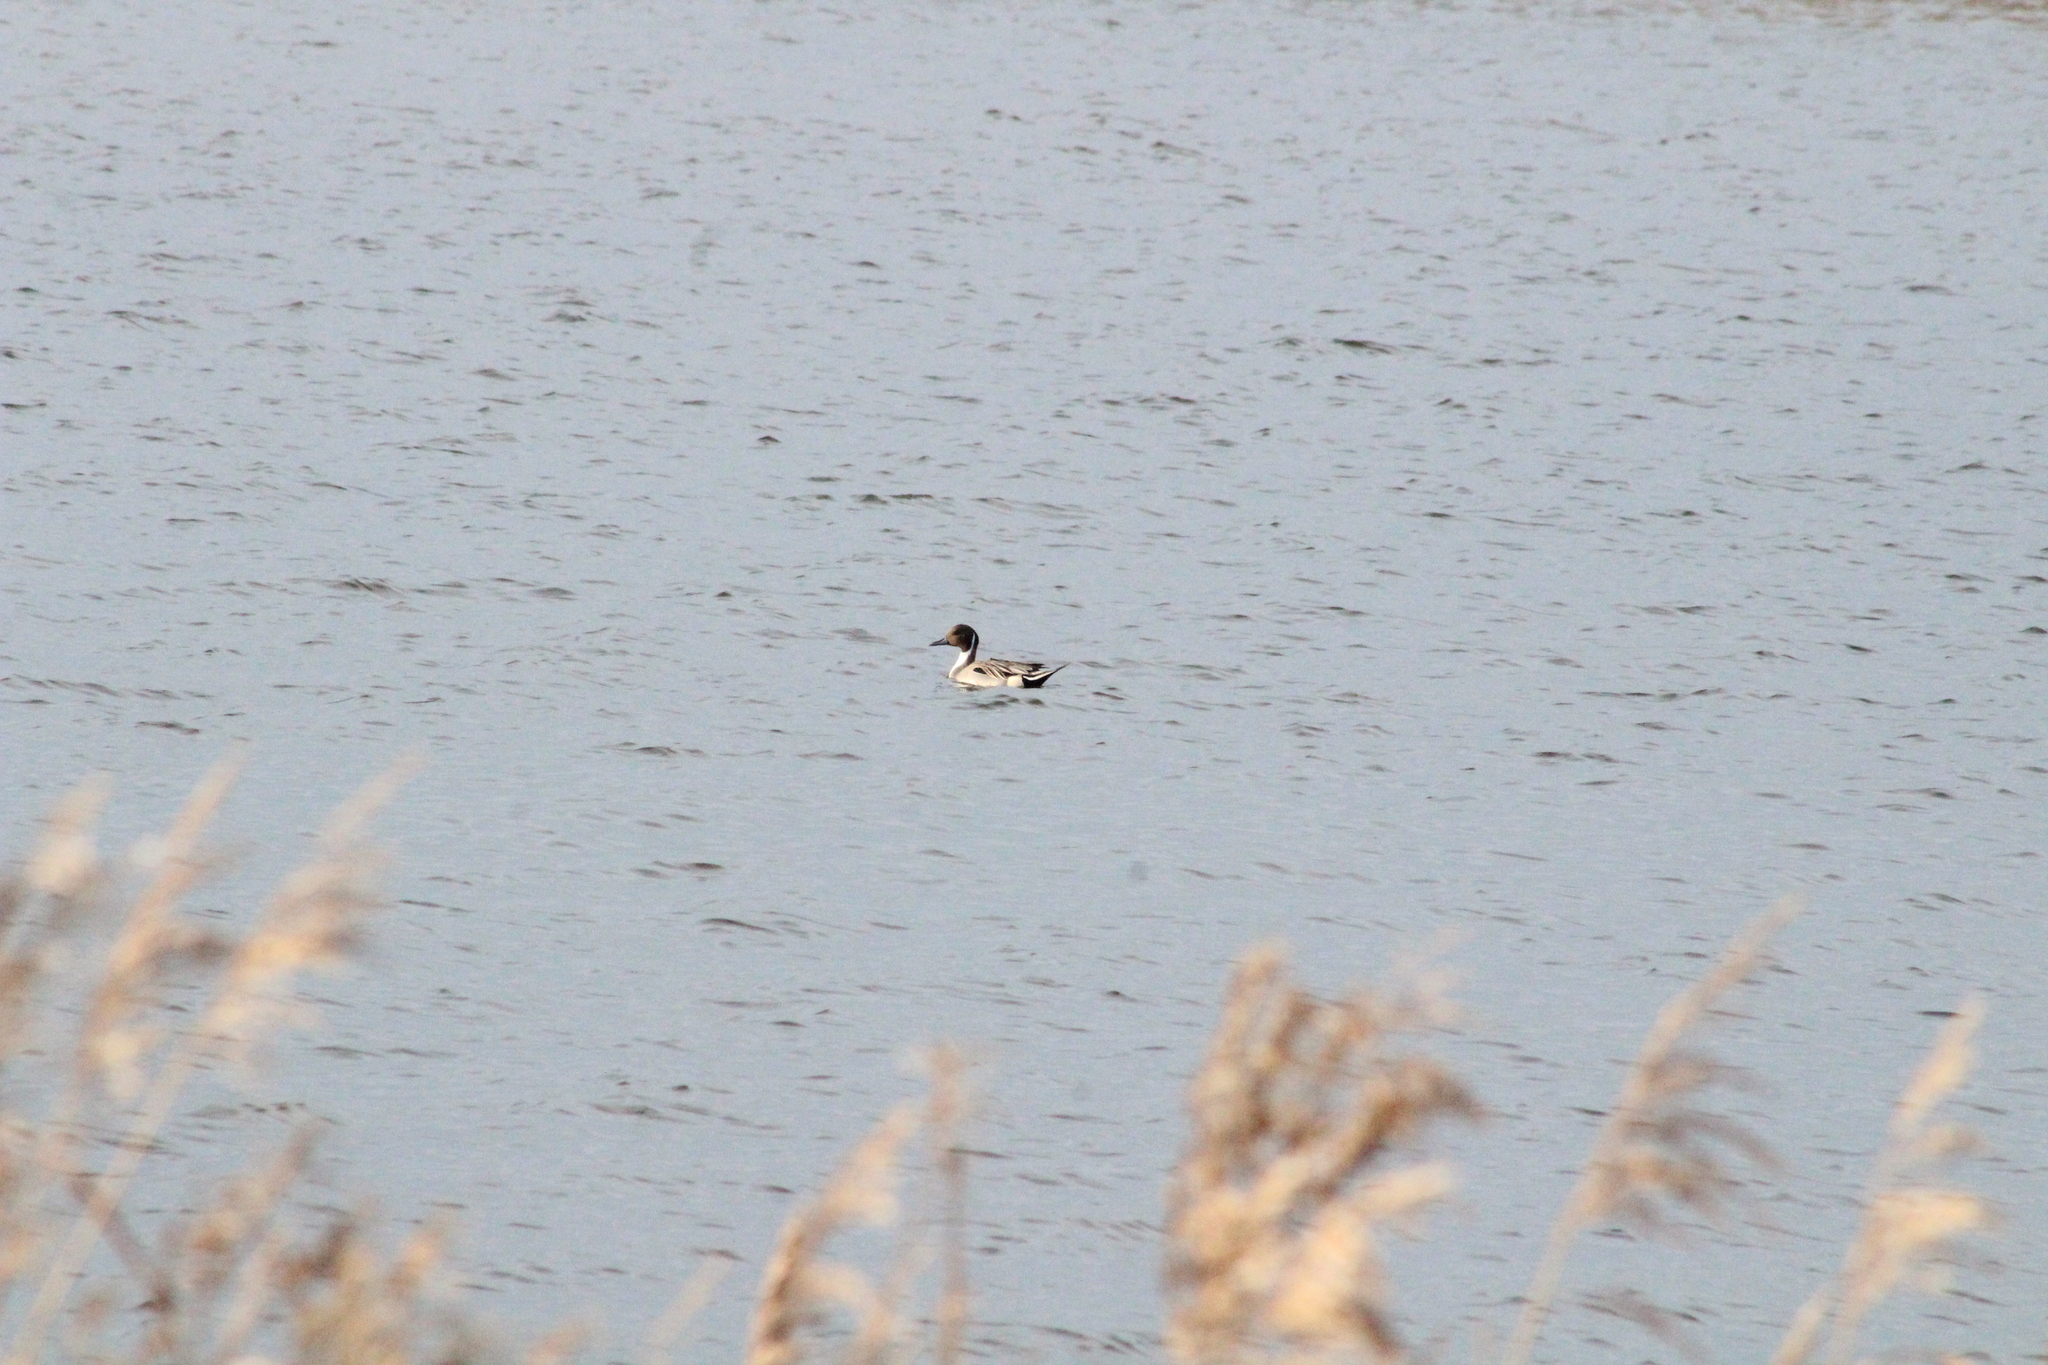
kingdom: Animalia
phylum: Chordata
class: Aves
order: Anseriformes
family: Anatidae
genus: Anas
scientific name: Anas acuta
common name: Northern pintail
